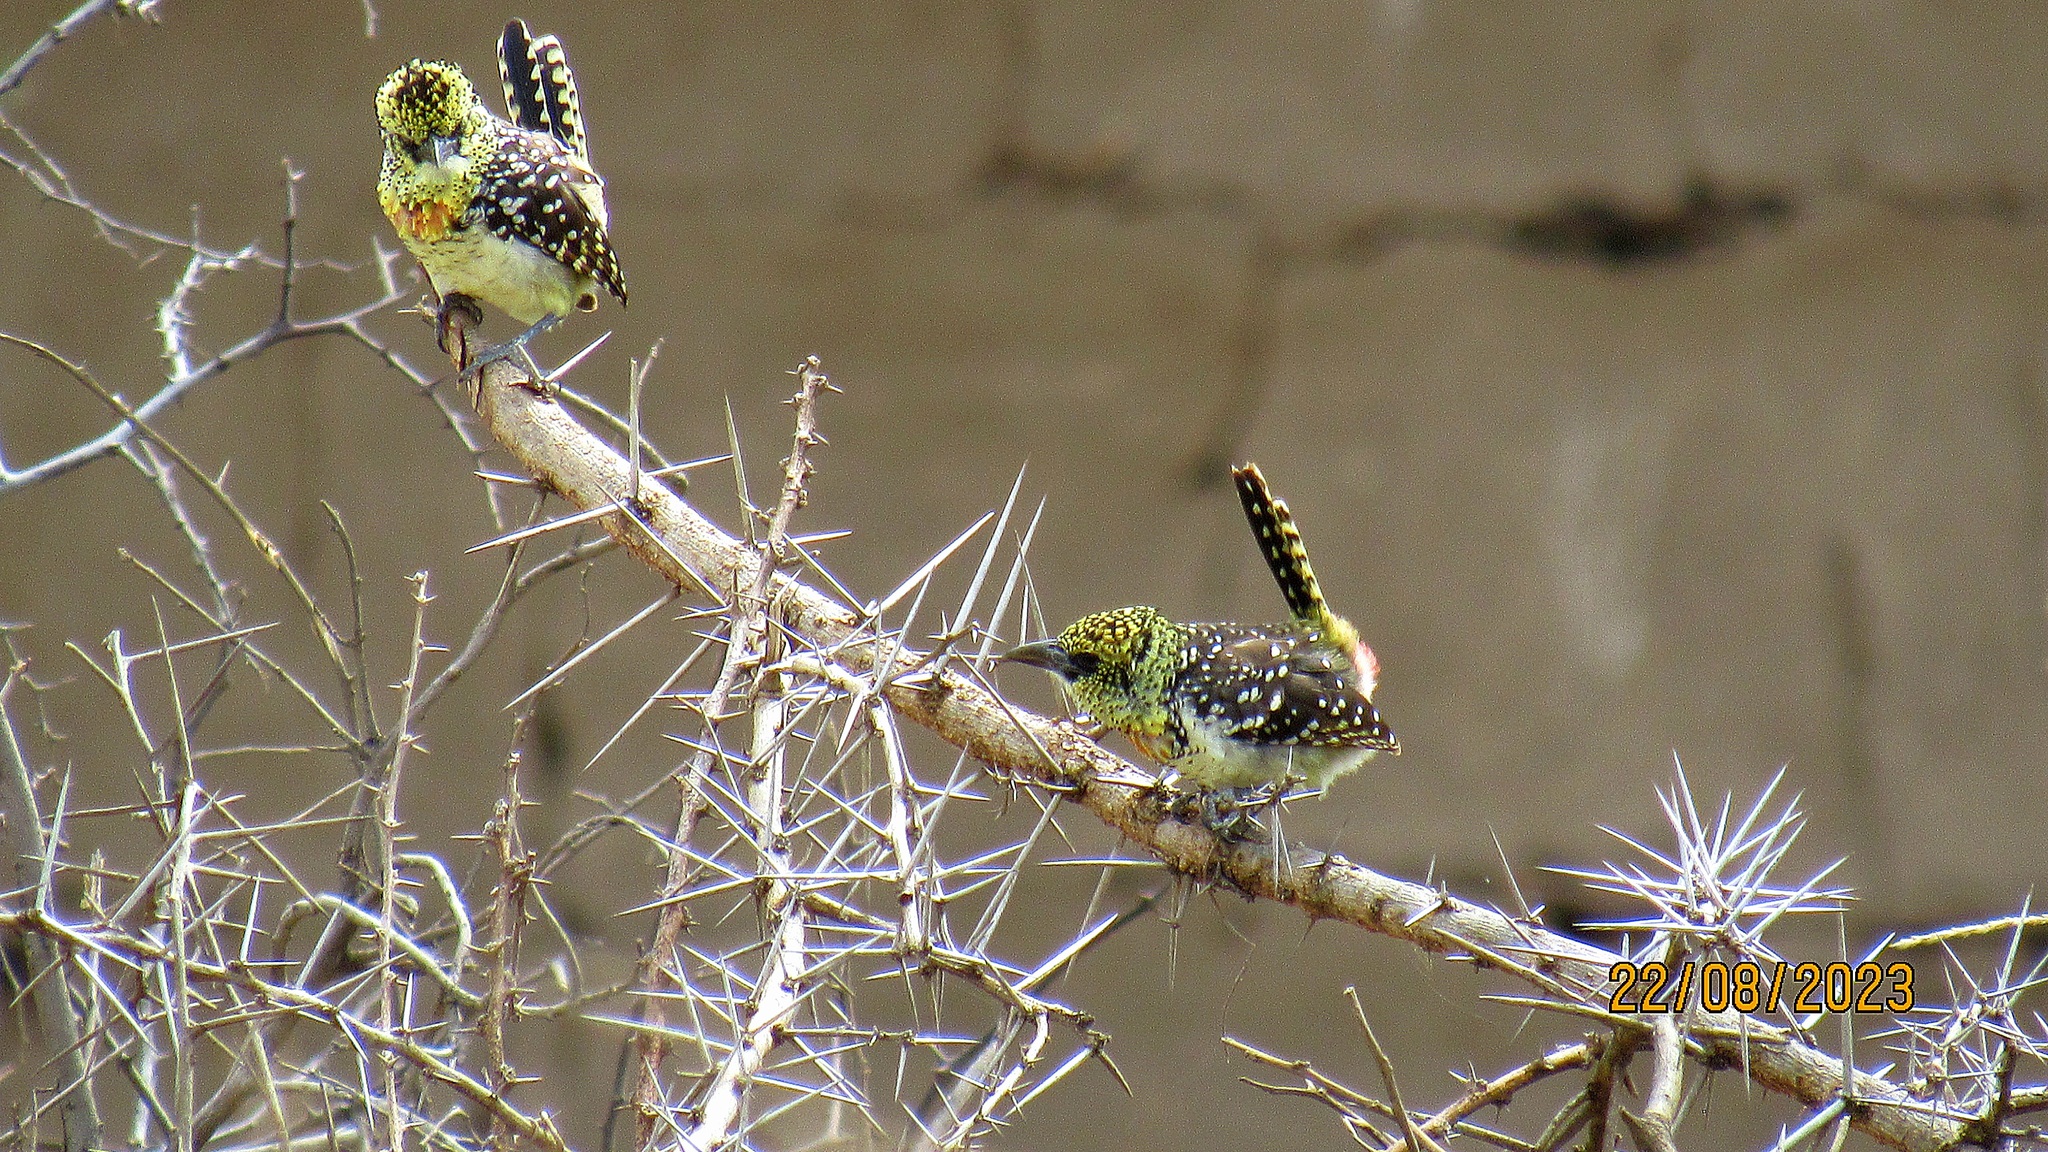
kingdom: Animalia
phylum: Chordata
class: Aves
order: Piciformes
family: Lybiidae
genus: Trachyphonus
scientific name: Trachyphonus darnaudii
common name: D'arnaud's barbet
